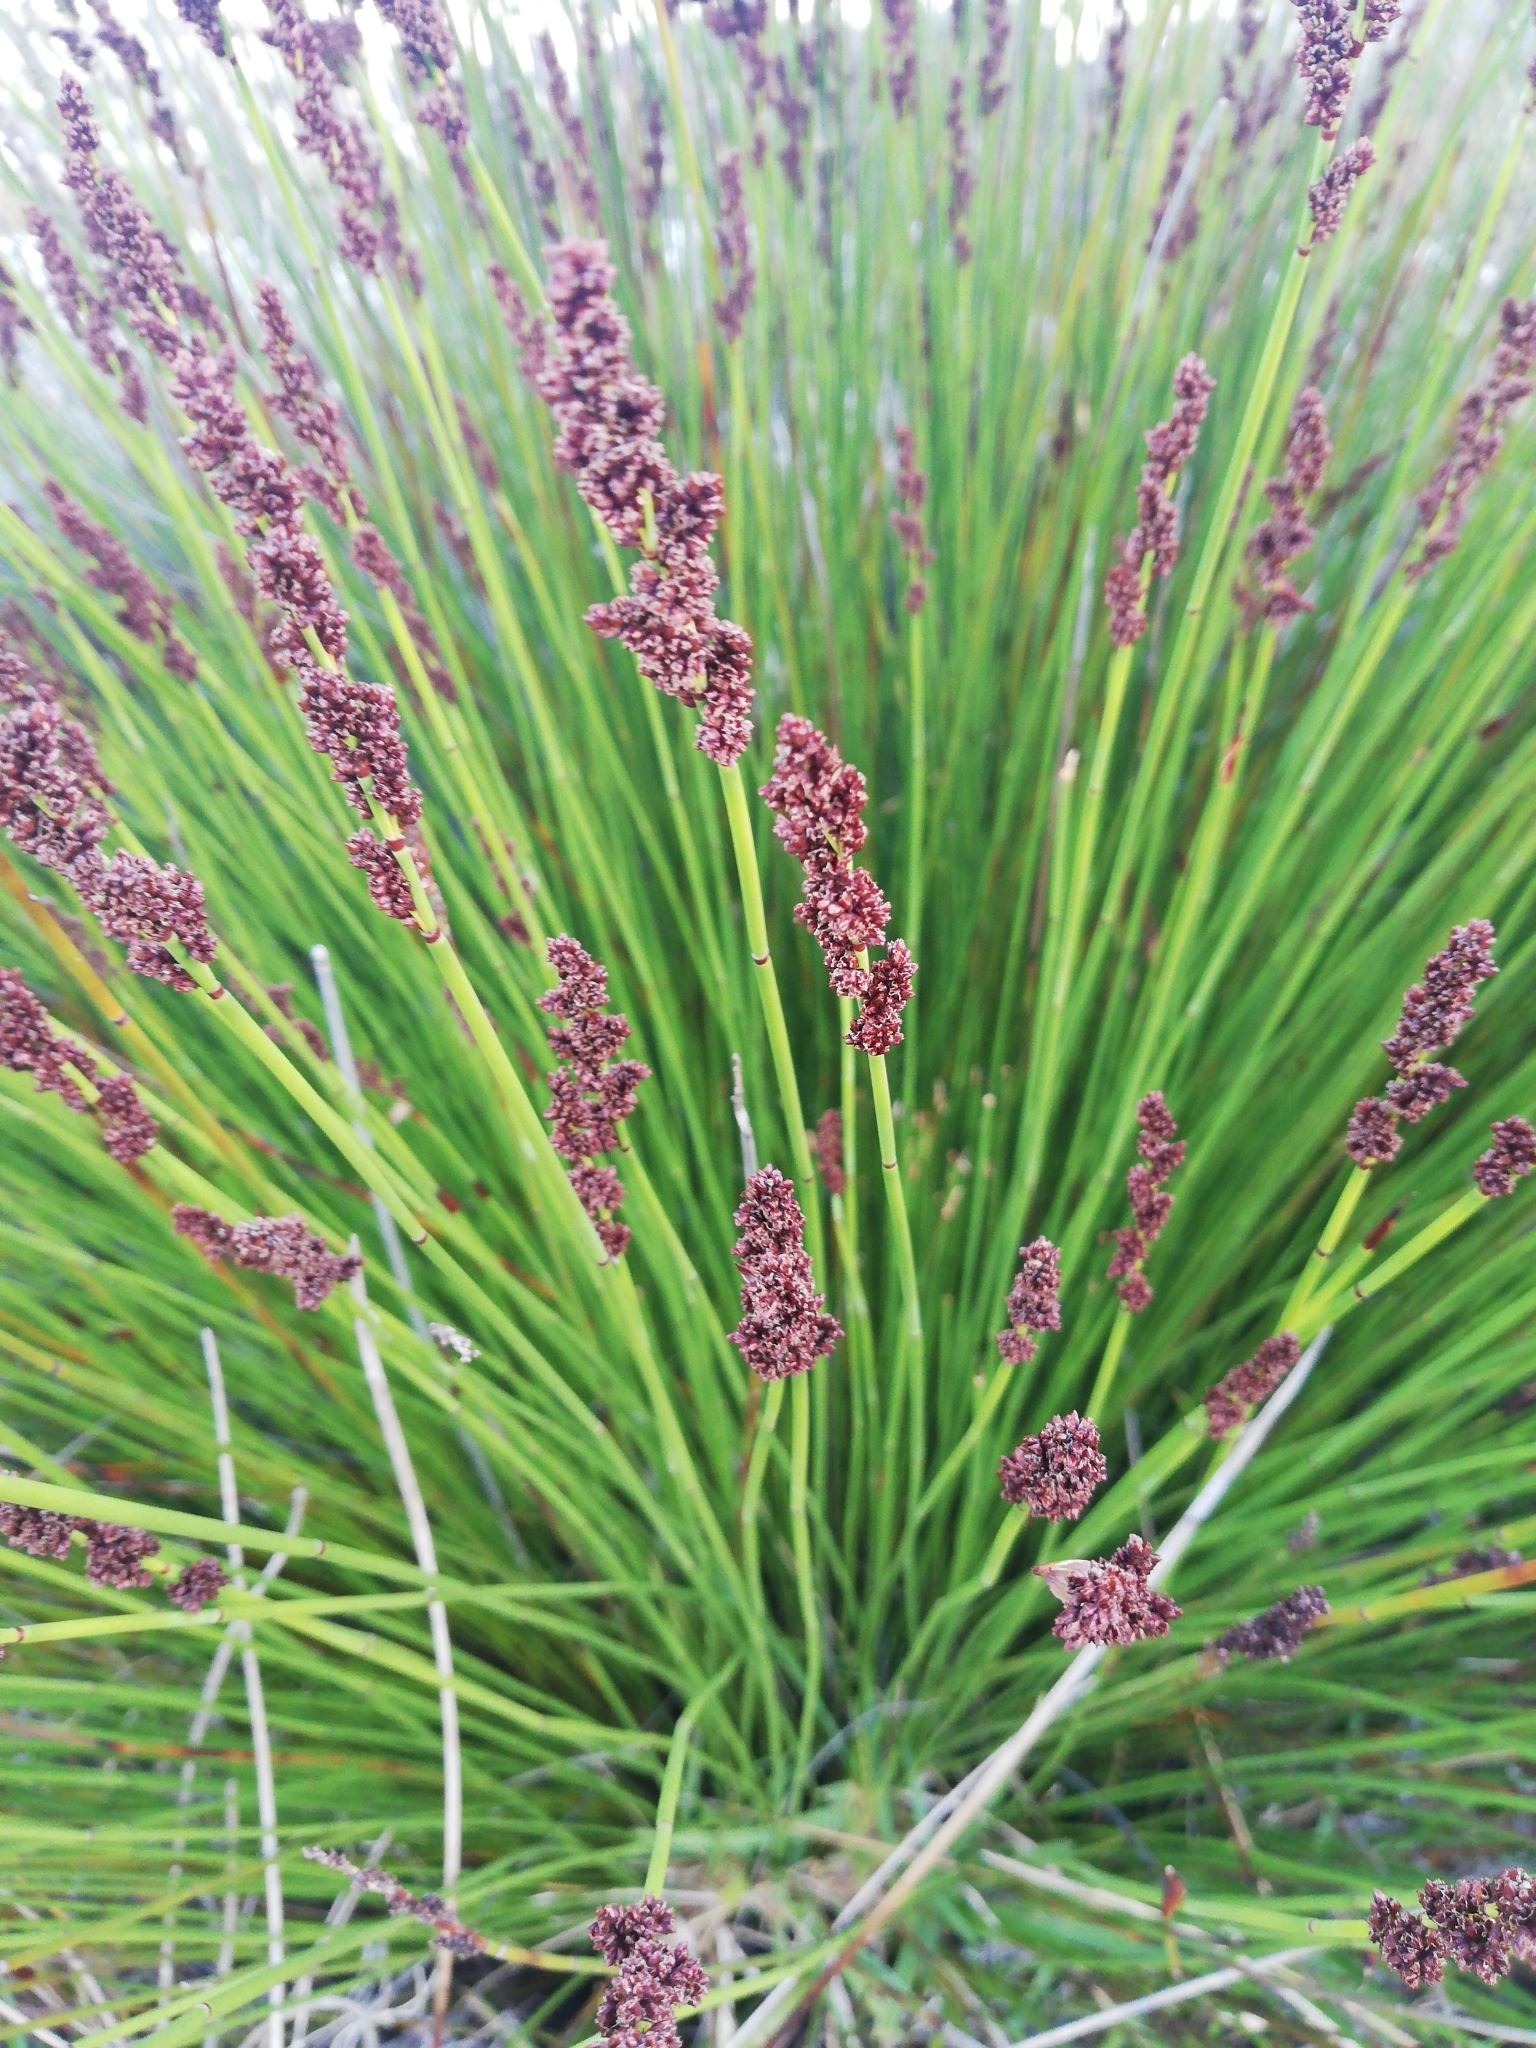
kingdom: Plantae
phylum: Tracheophyta
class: Liliopsida
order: Poales
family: Restionaceae
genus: Elegia
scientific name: Elegia tectorum
